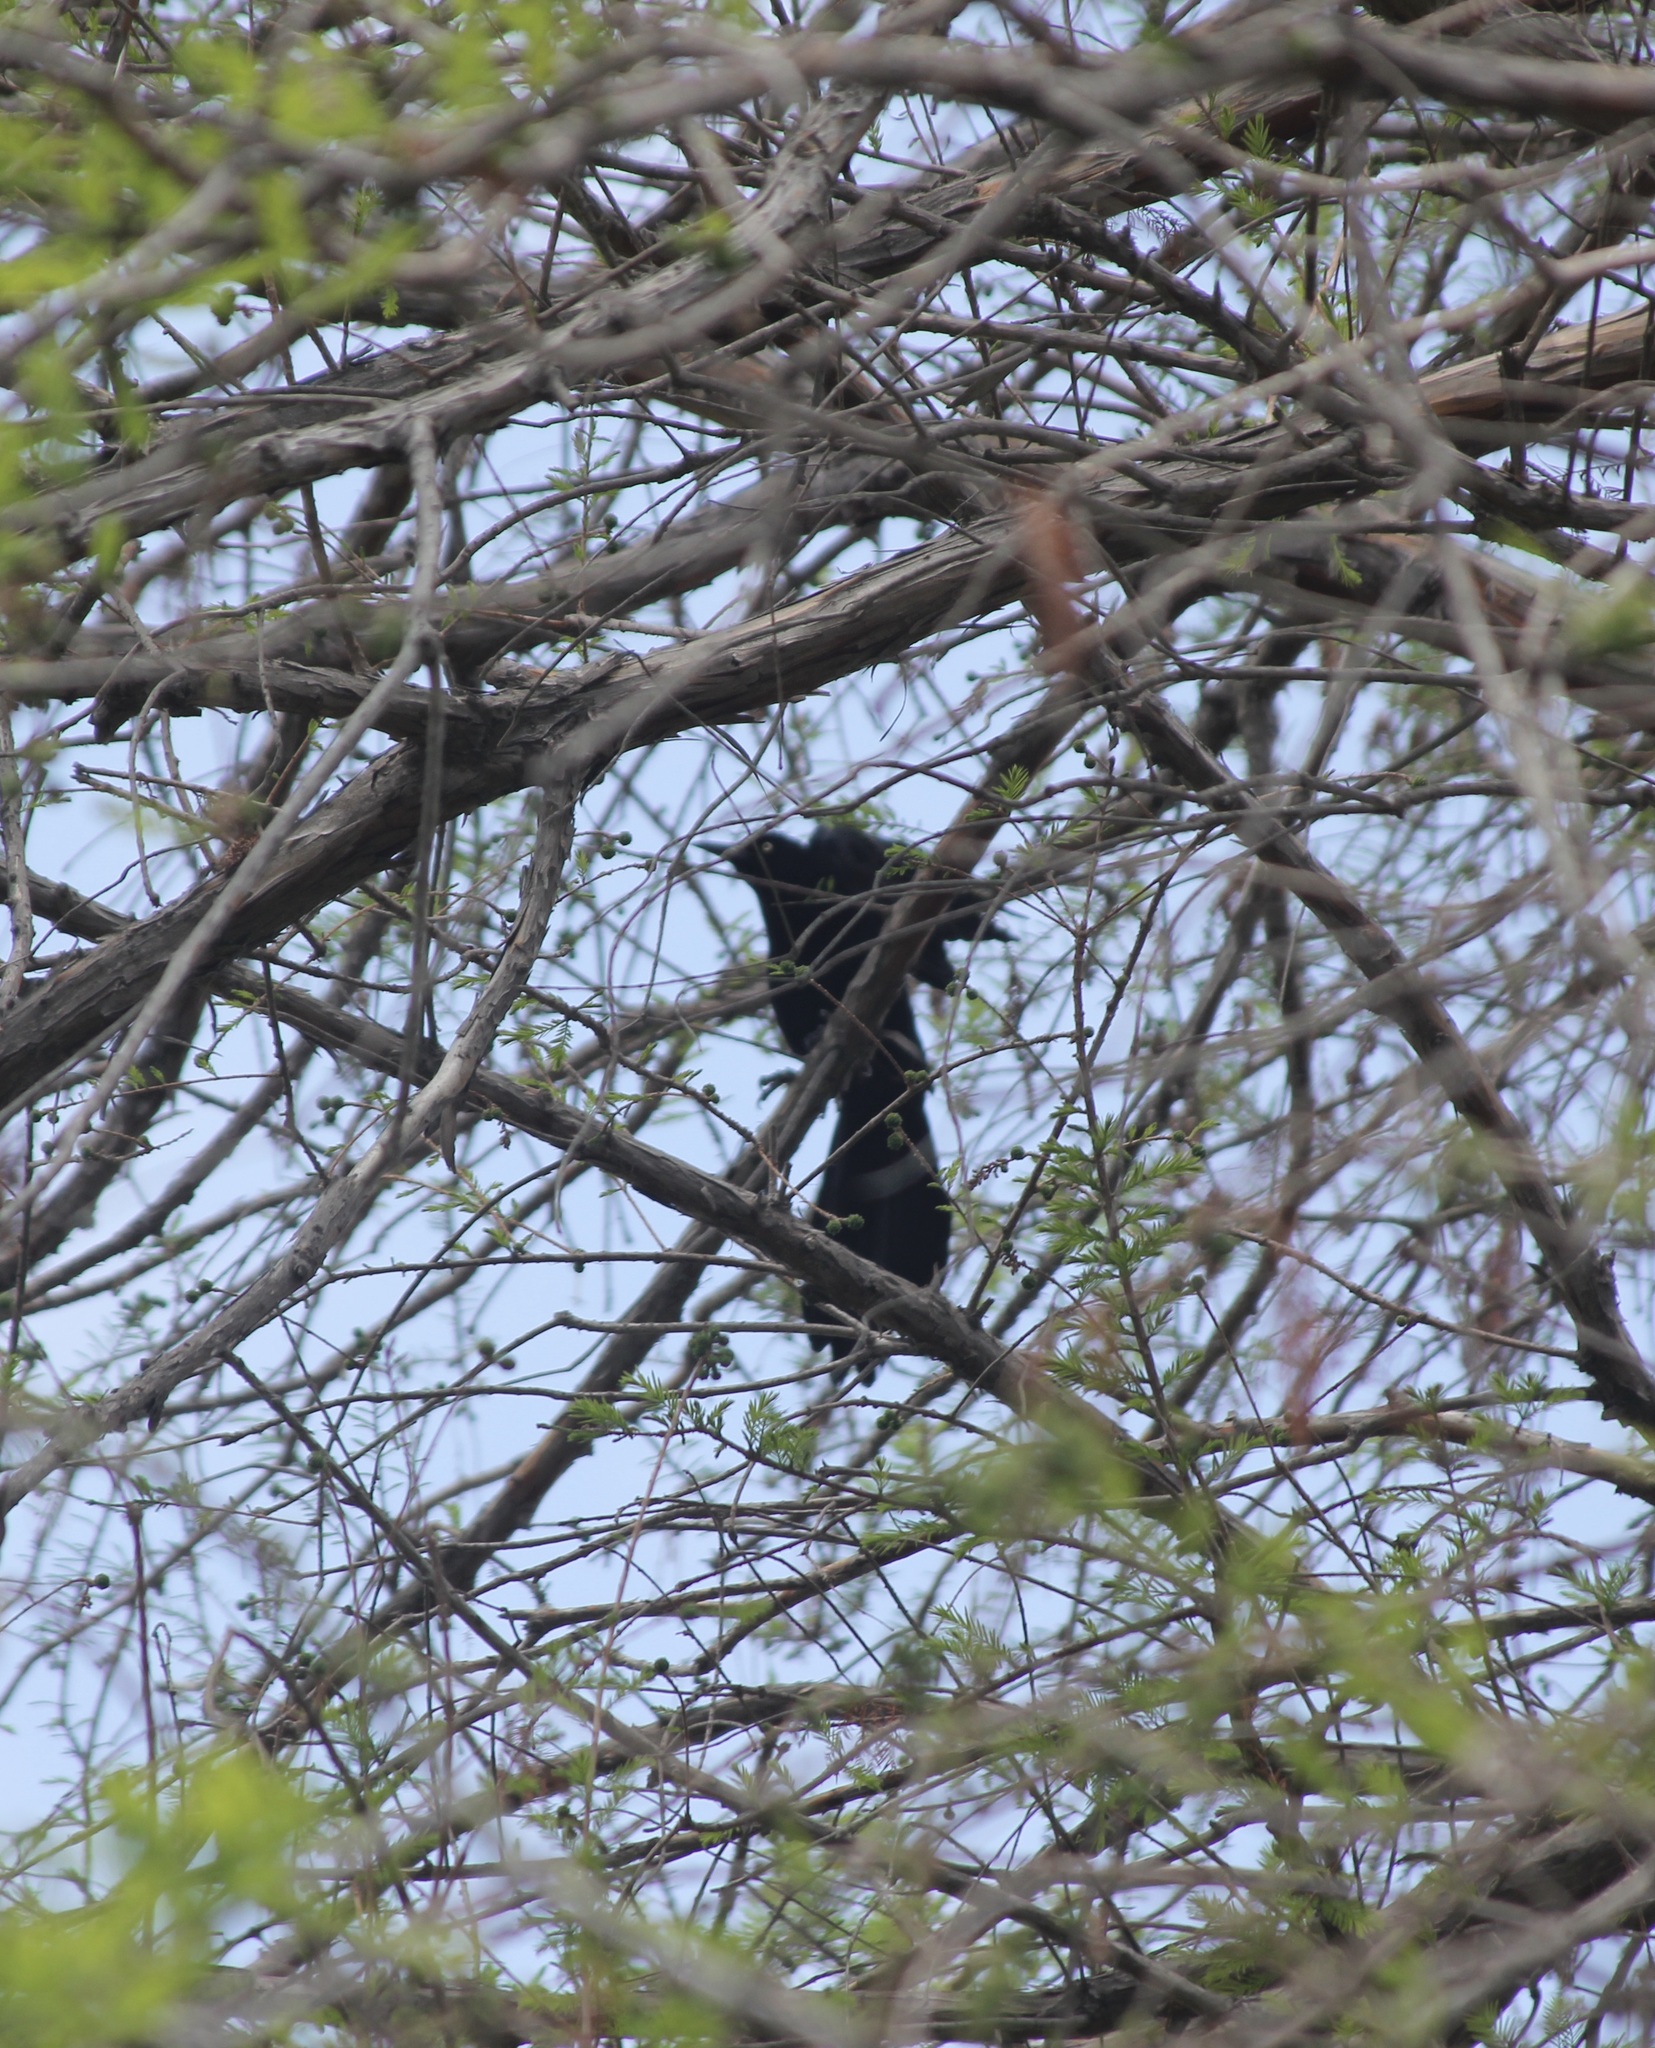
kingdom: Animalia
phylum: Chordata
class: Aves
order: Passeriformes
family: Icteridae
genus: Quiscalus
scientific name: Quiscalus mexicanus
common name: Great-tailed grackle
